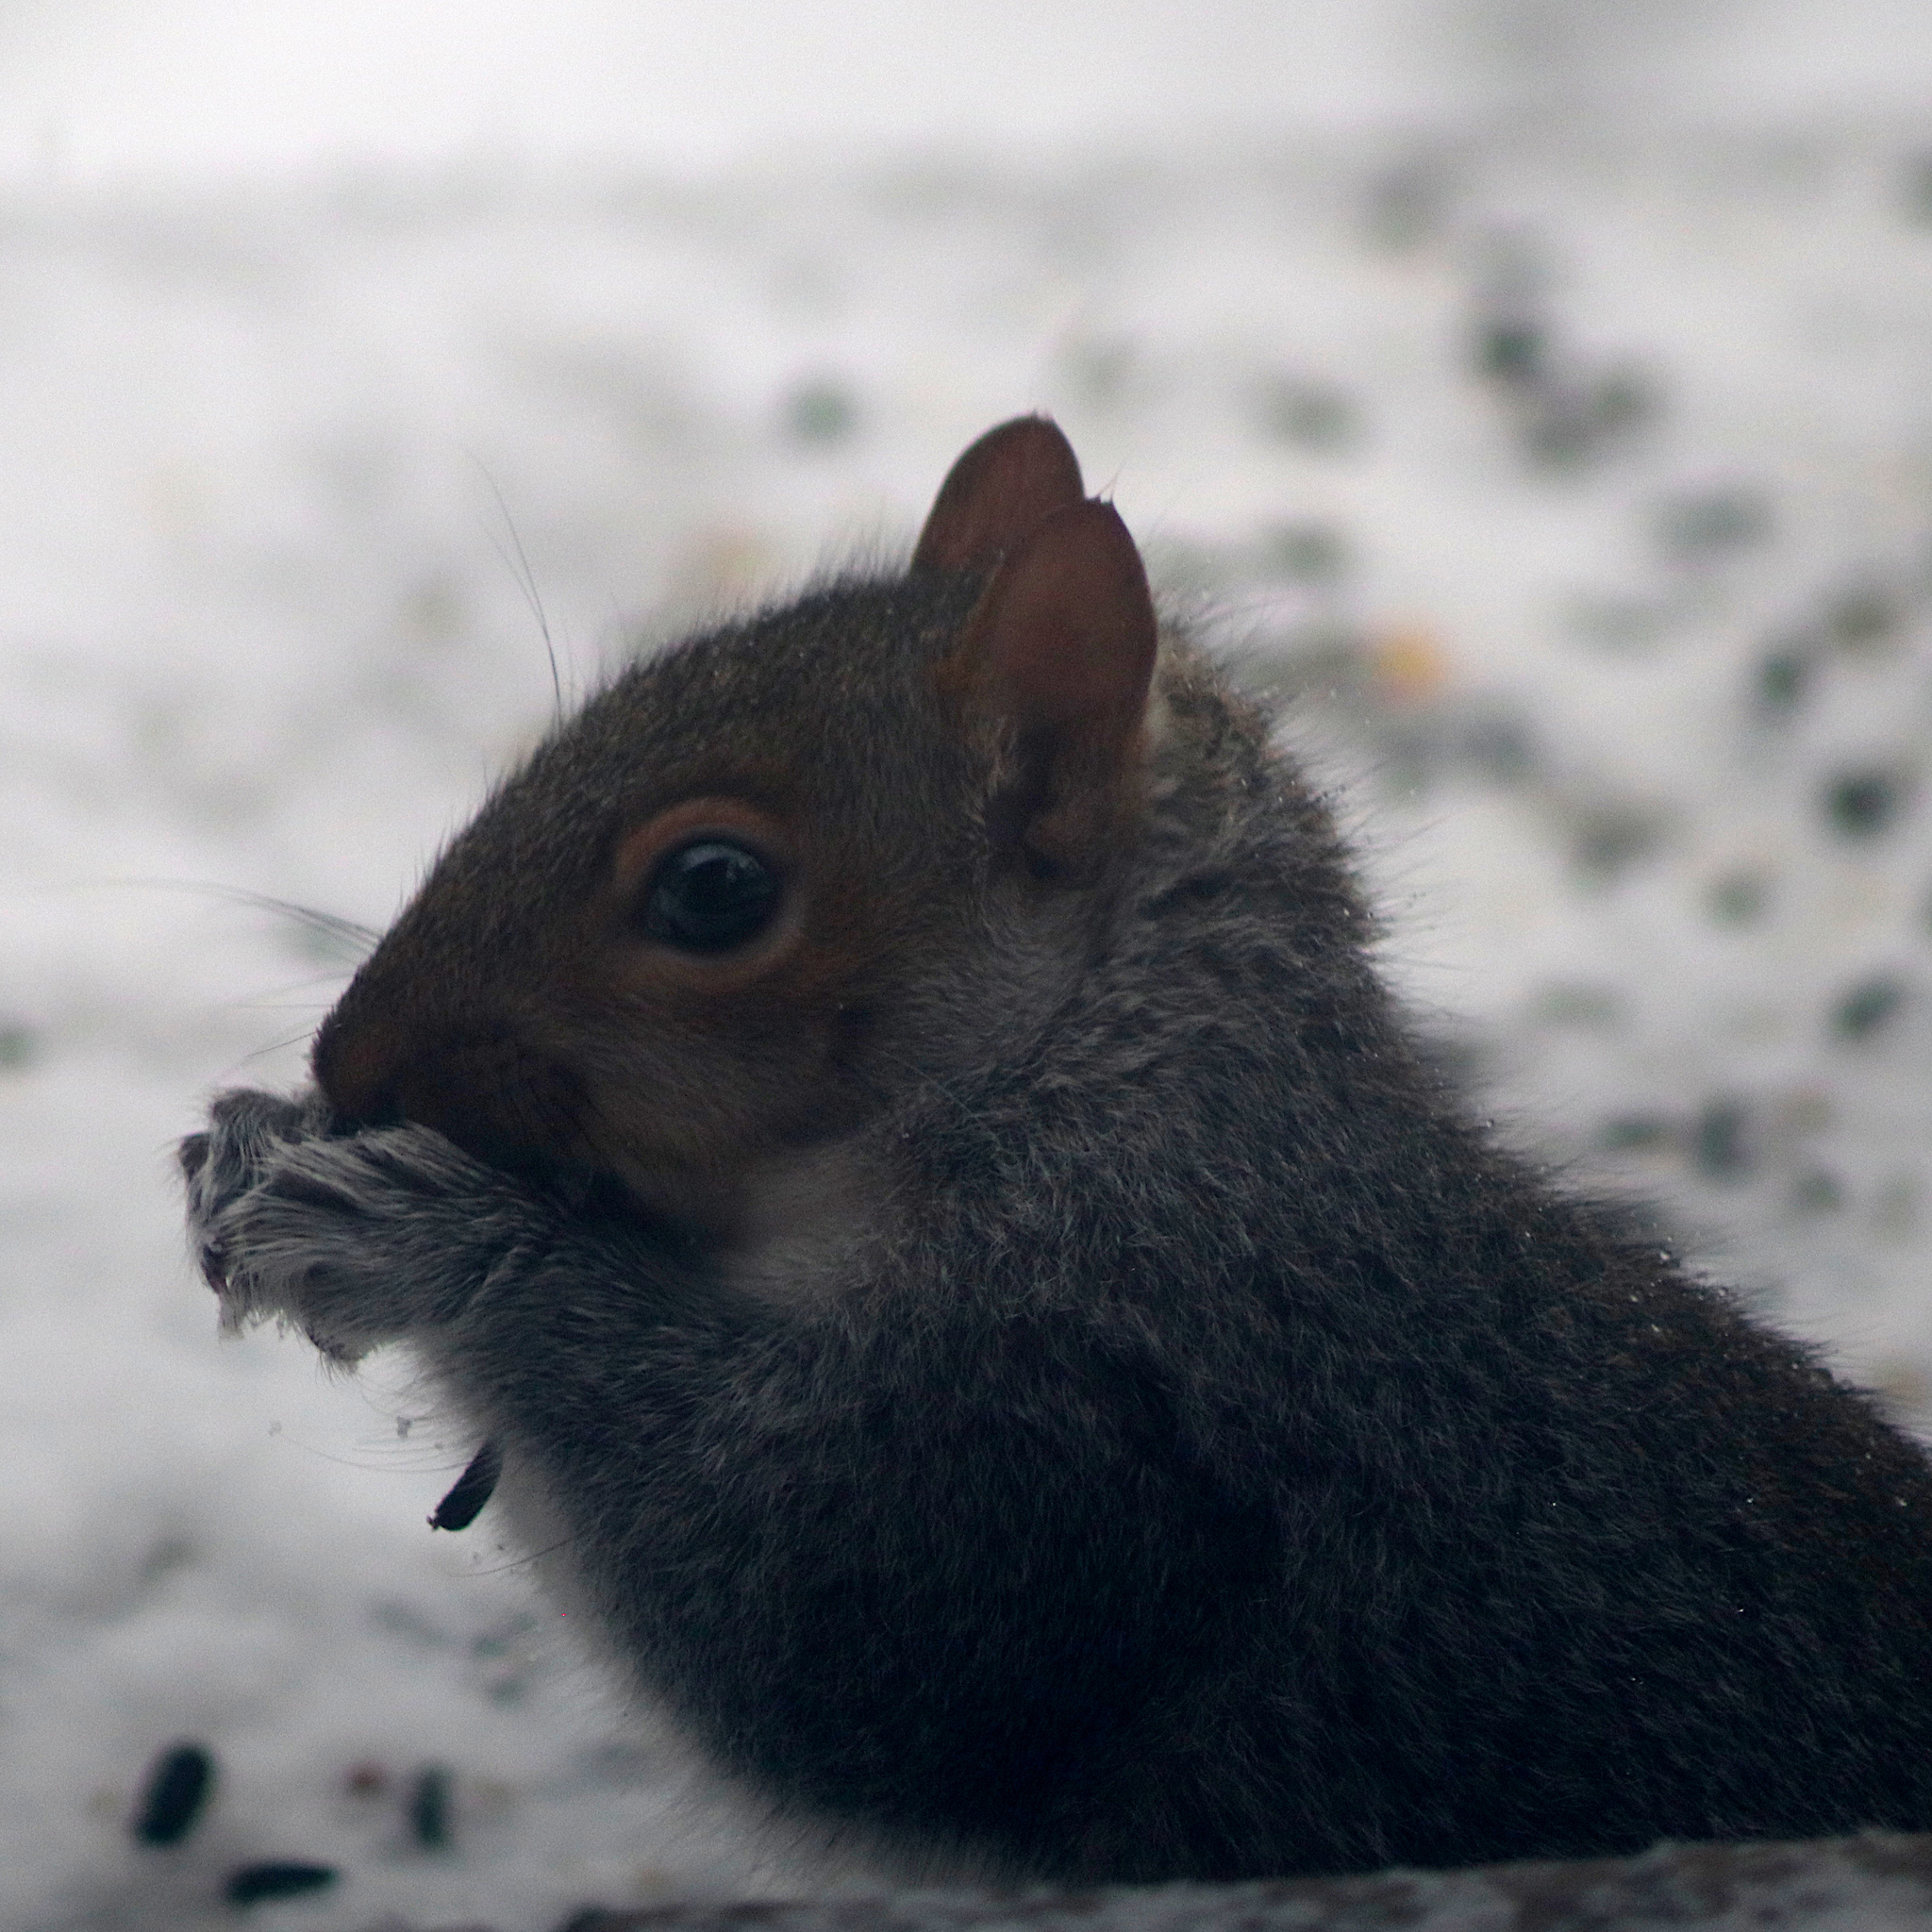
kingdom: Animalia
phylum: Chordata
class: Mammalia
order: Rodentia
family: Sciuridae
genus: Sciurus
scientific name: Sciurus carolinensis
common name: Eastern gray squirrel
